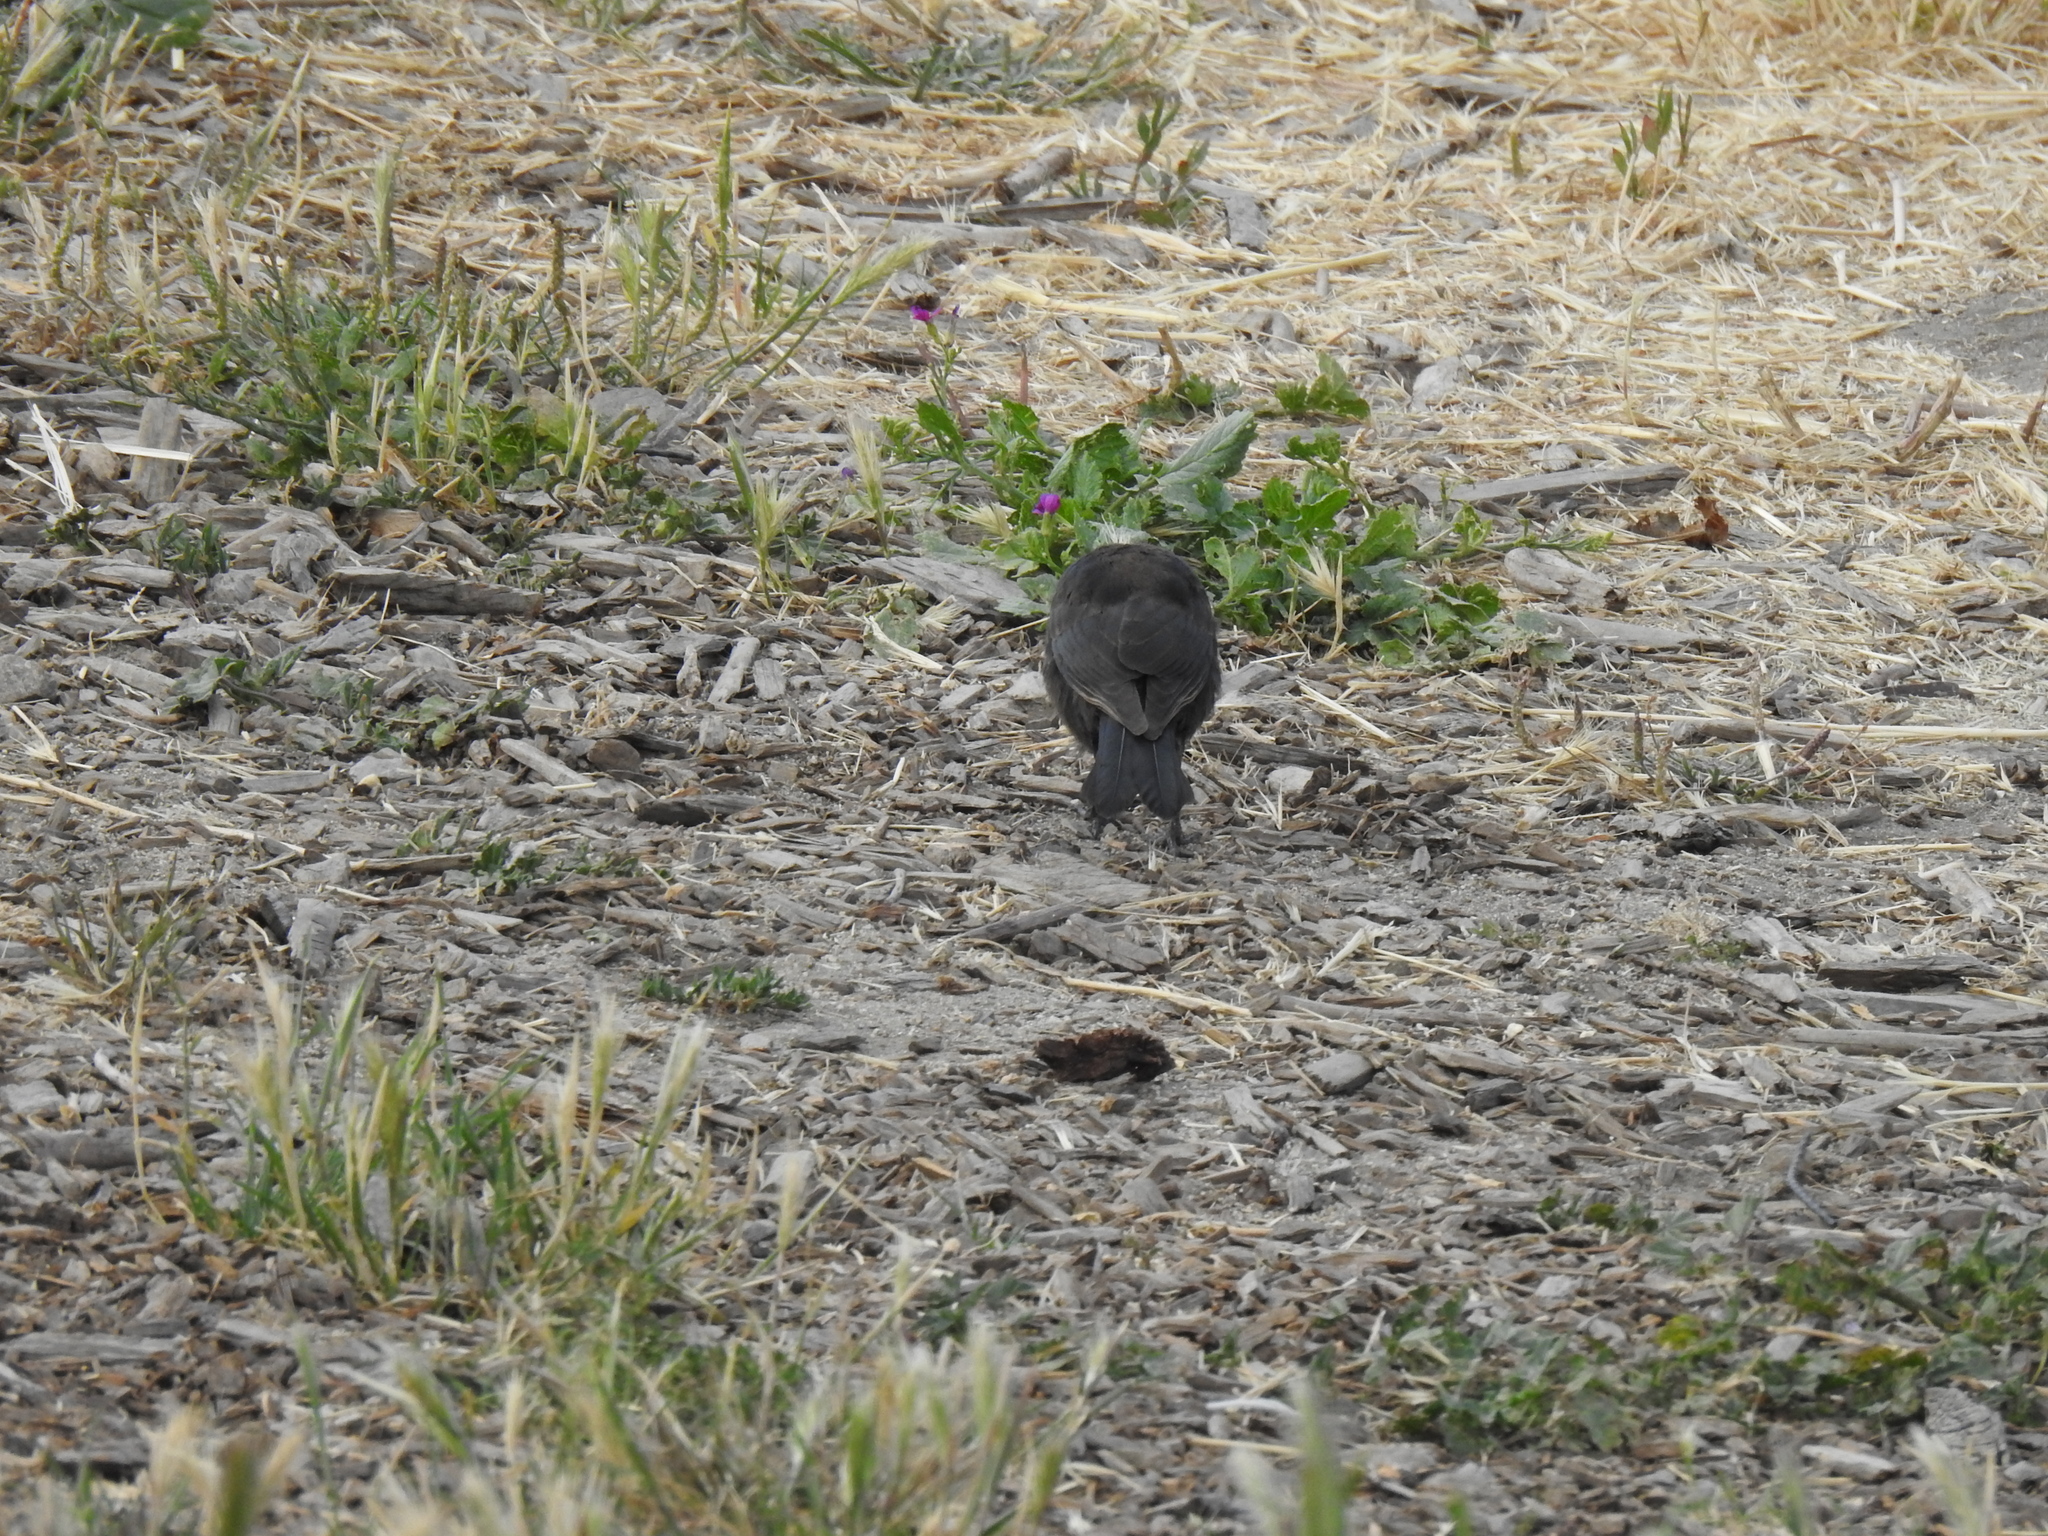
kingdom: Animalia
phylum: Chordata
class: Aves
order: Passeriformes
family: Icteridae
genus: Euphagus
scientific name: Euphagus cyanocephalus
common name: Brewer's blackbird
